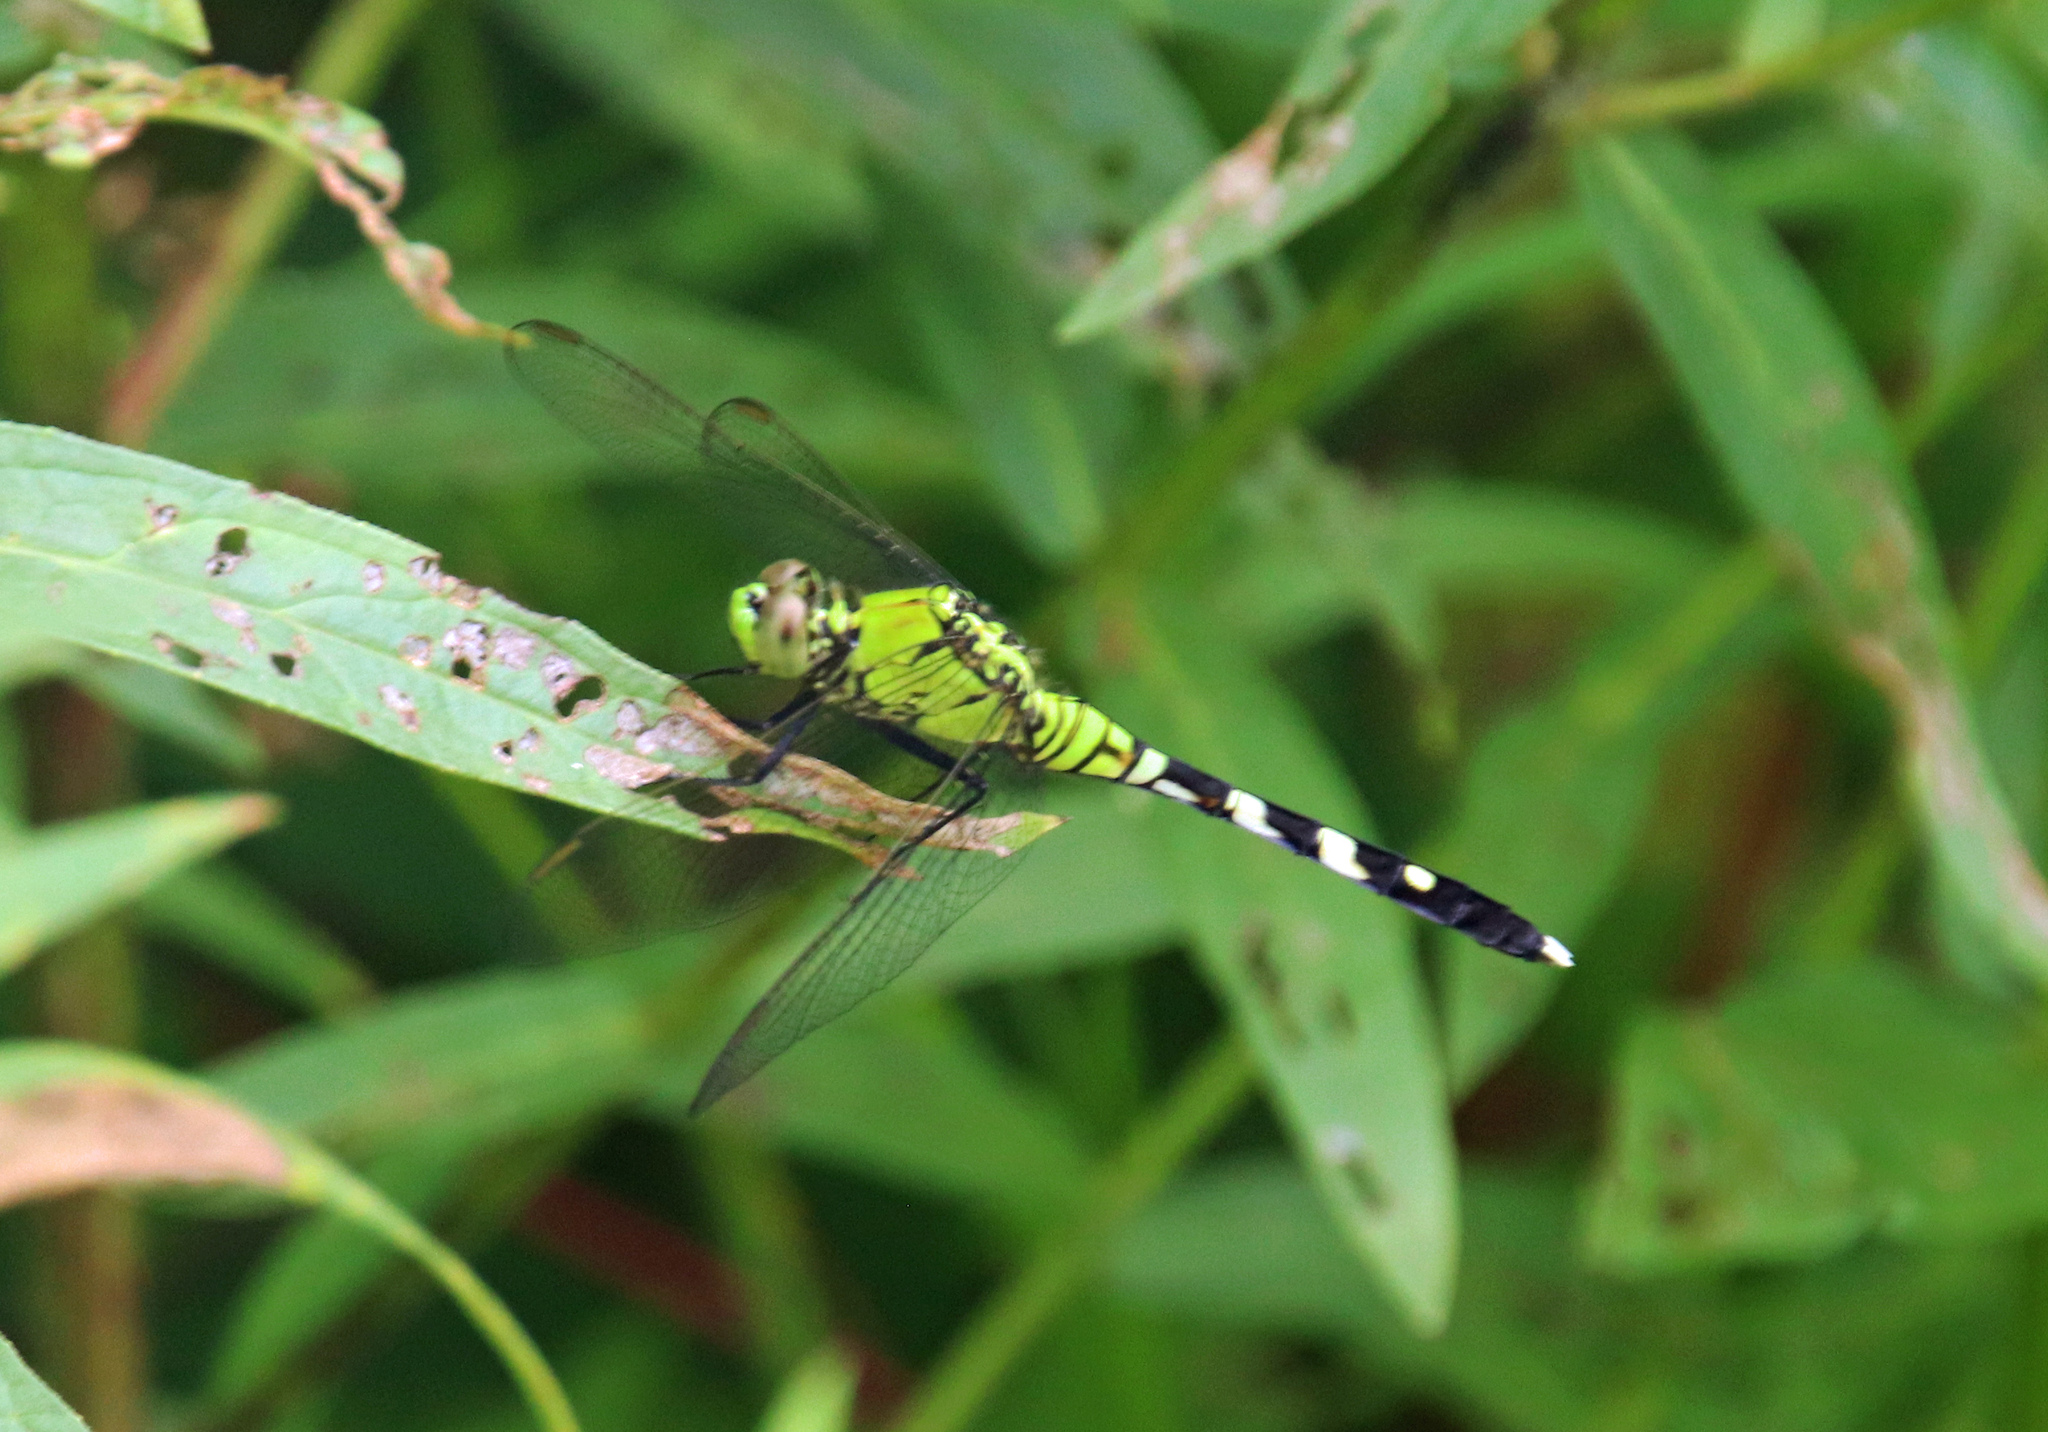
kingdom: Animalia
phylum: Arthropoda
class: Insecta
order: Odonata
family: Libellulidae
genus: Erythemis
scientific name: Erythemis simplicicollis
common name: Eastern pondhawk
